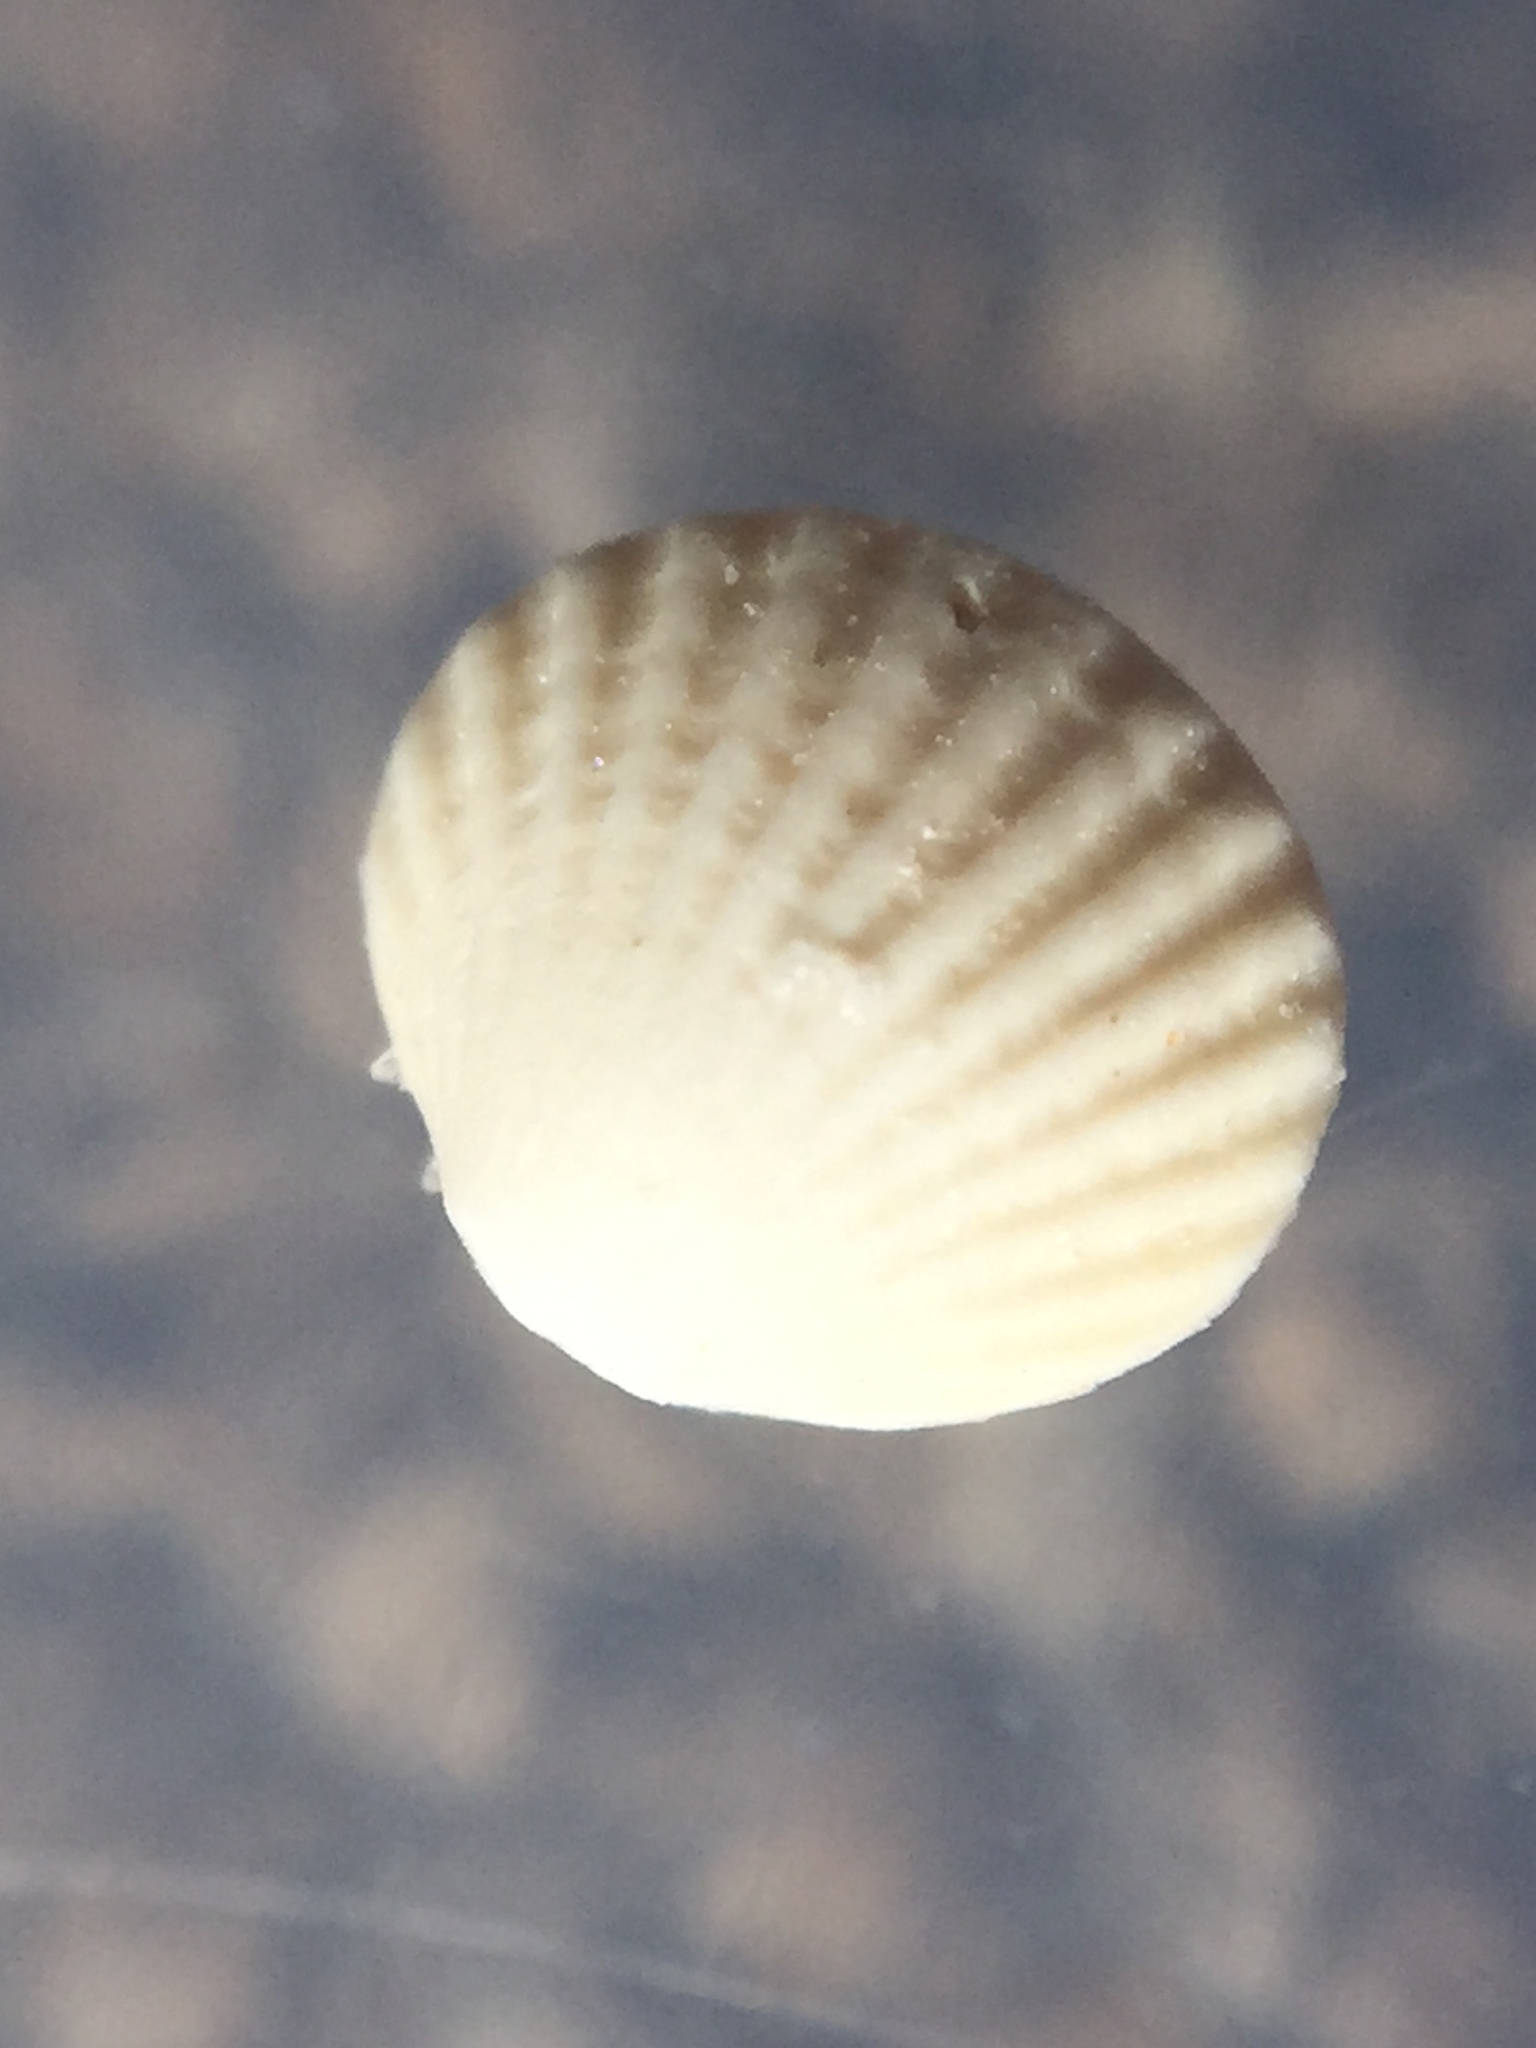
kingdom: Animalia
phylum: Mollusca
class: Bivalvia
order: Carditida
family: Carditidae
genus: Purpurocardia
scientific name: Purpurocardia purpurata
